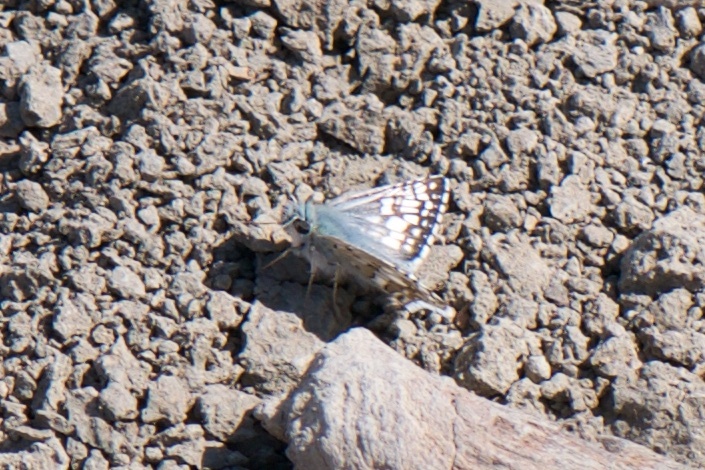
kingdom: Animalia
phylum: Arthropoda
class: Insecta
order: Lepidoptera
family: Hesperiidae
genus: Burnsius
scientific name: Burnsius communis
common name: Common checkered-skipper
